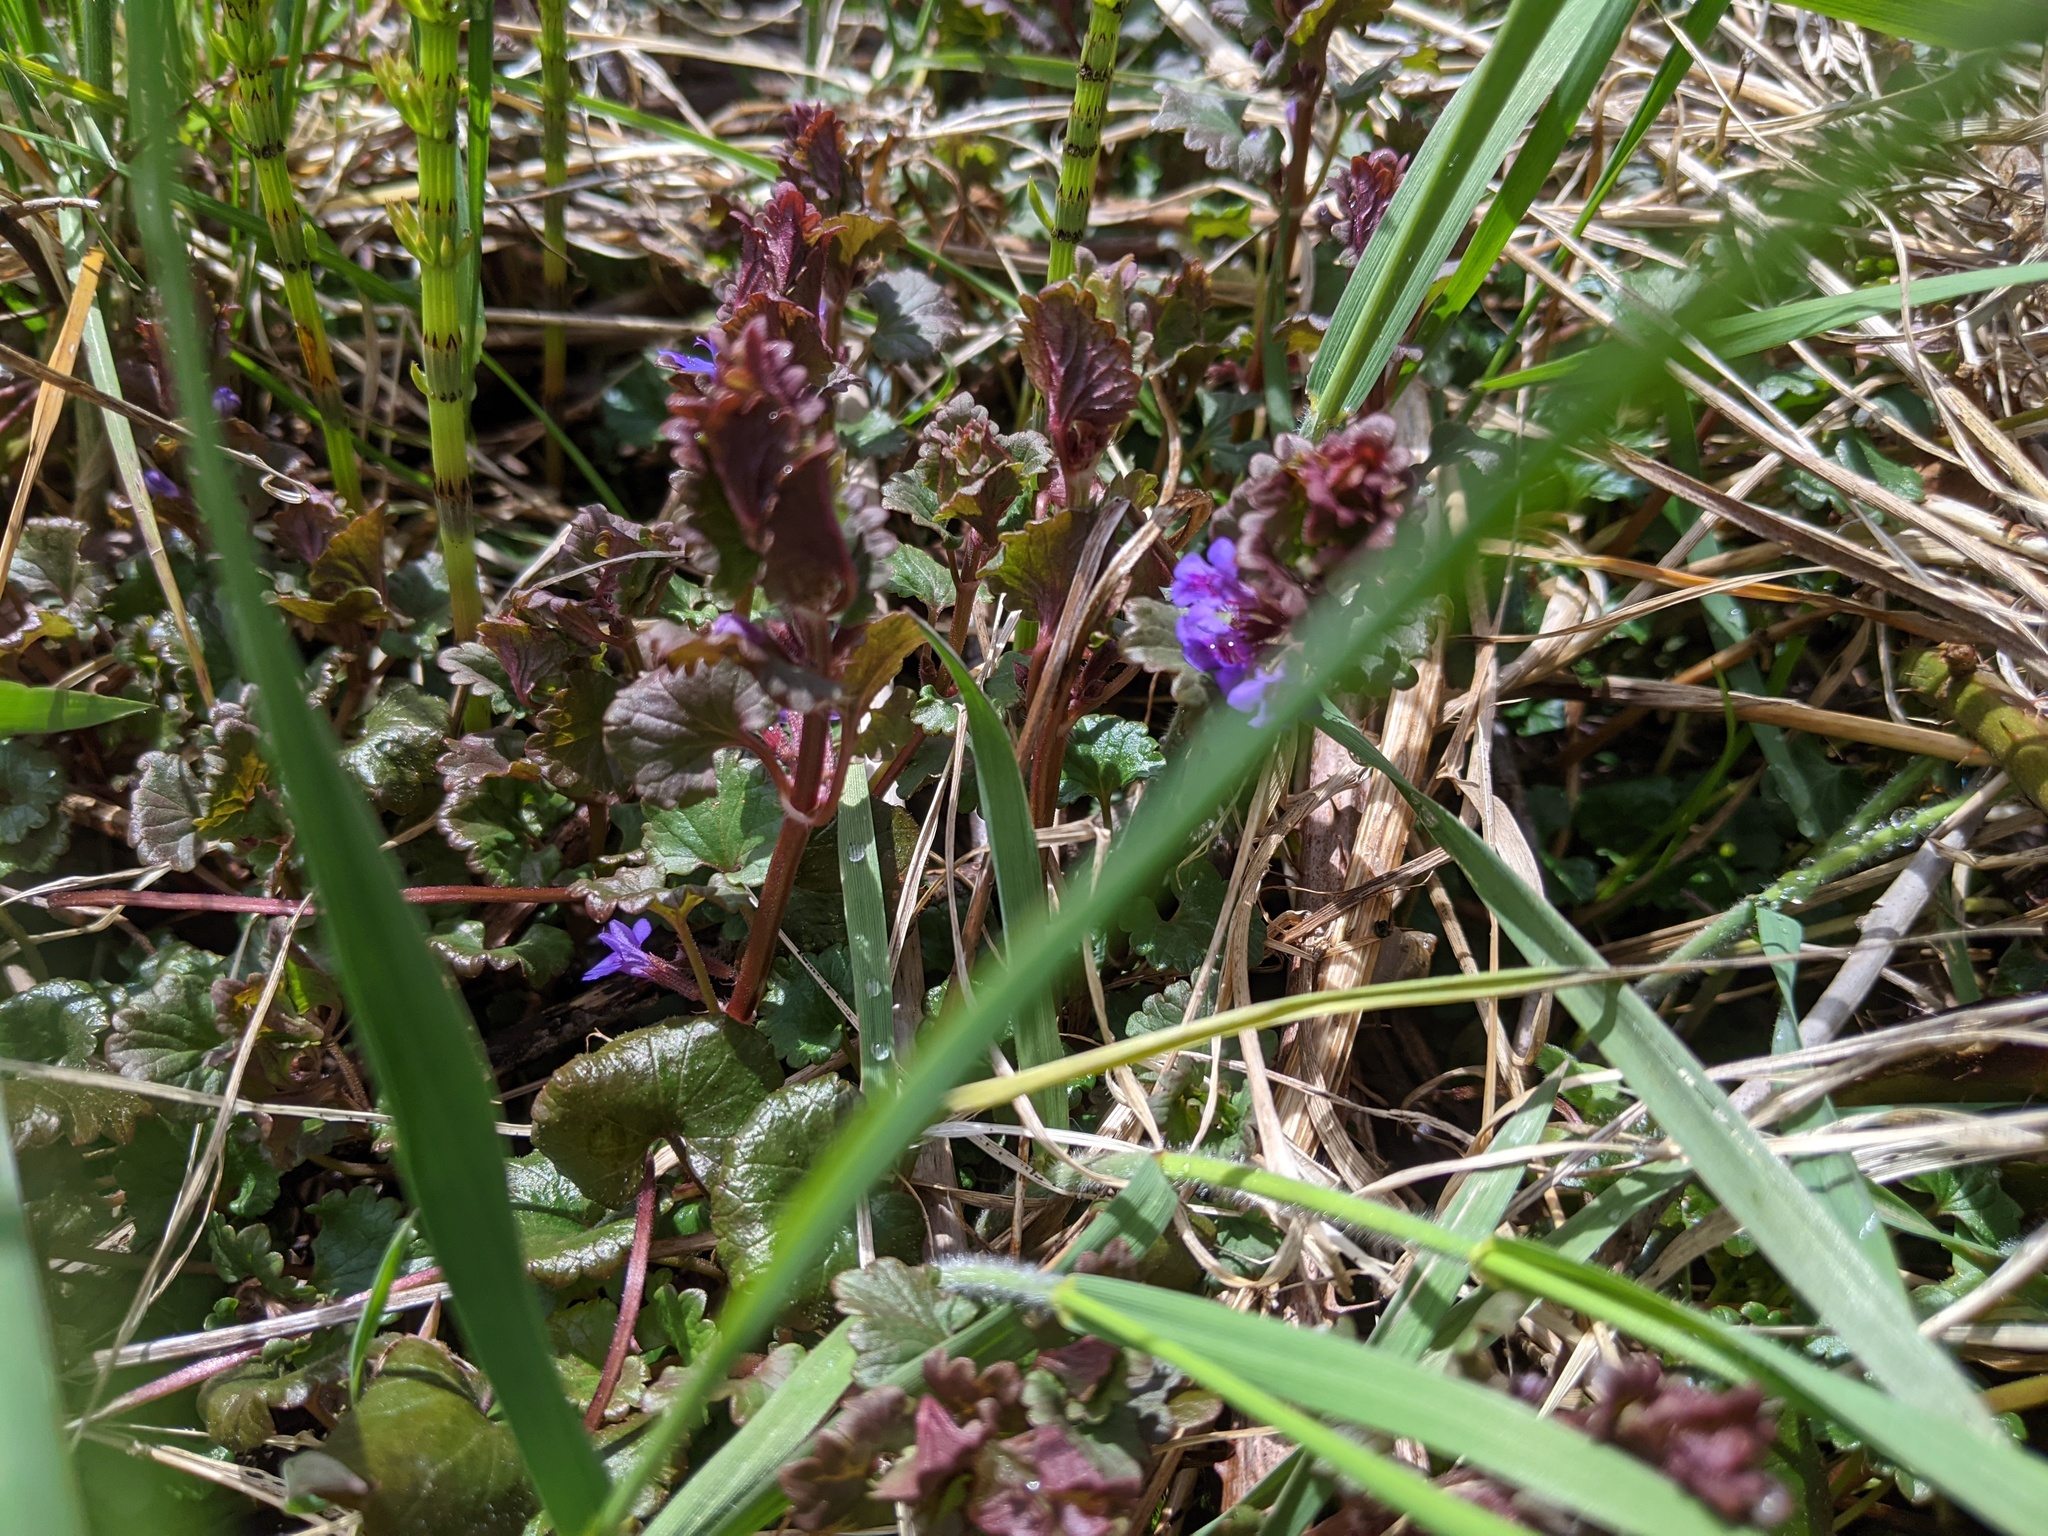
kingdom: Plantae
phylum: Tracheophyta
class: Magnoliopsida
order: Lamiales
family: Lamiaceae
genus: Glechoma
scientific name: Glechoma hederacea
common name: Ground ivy
